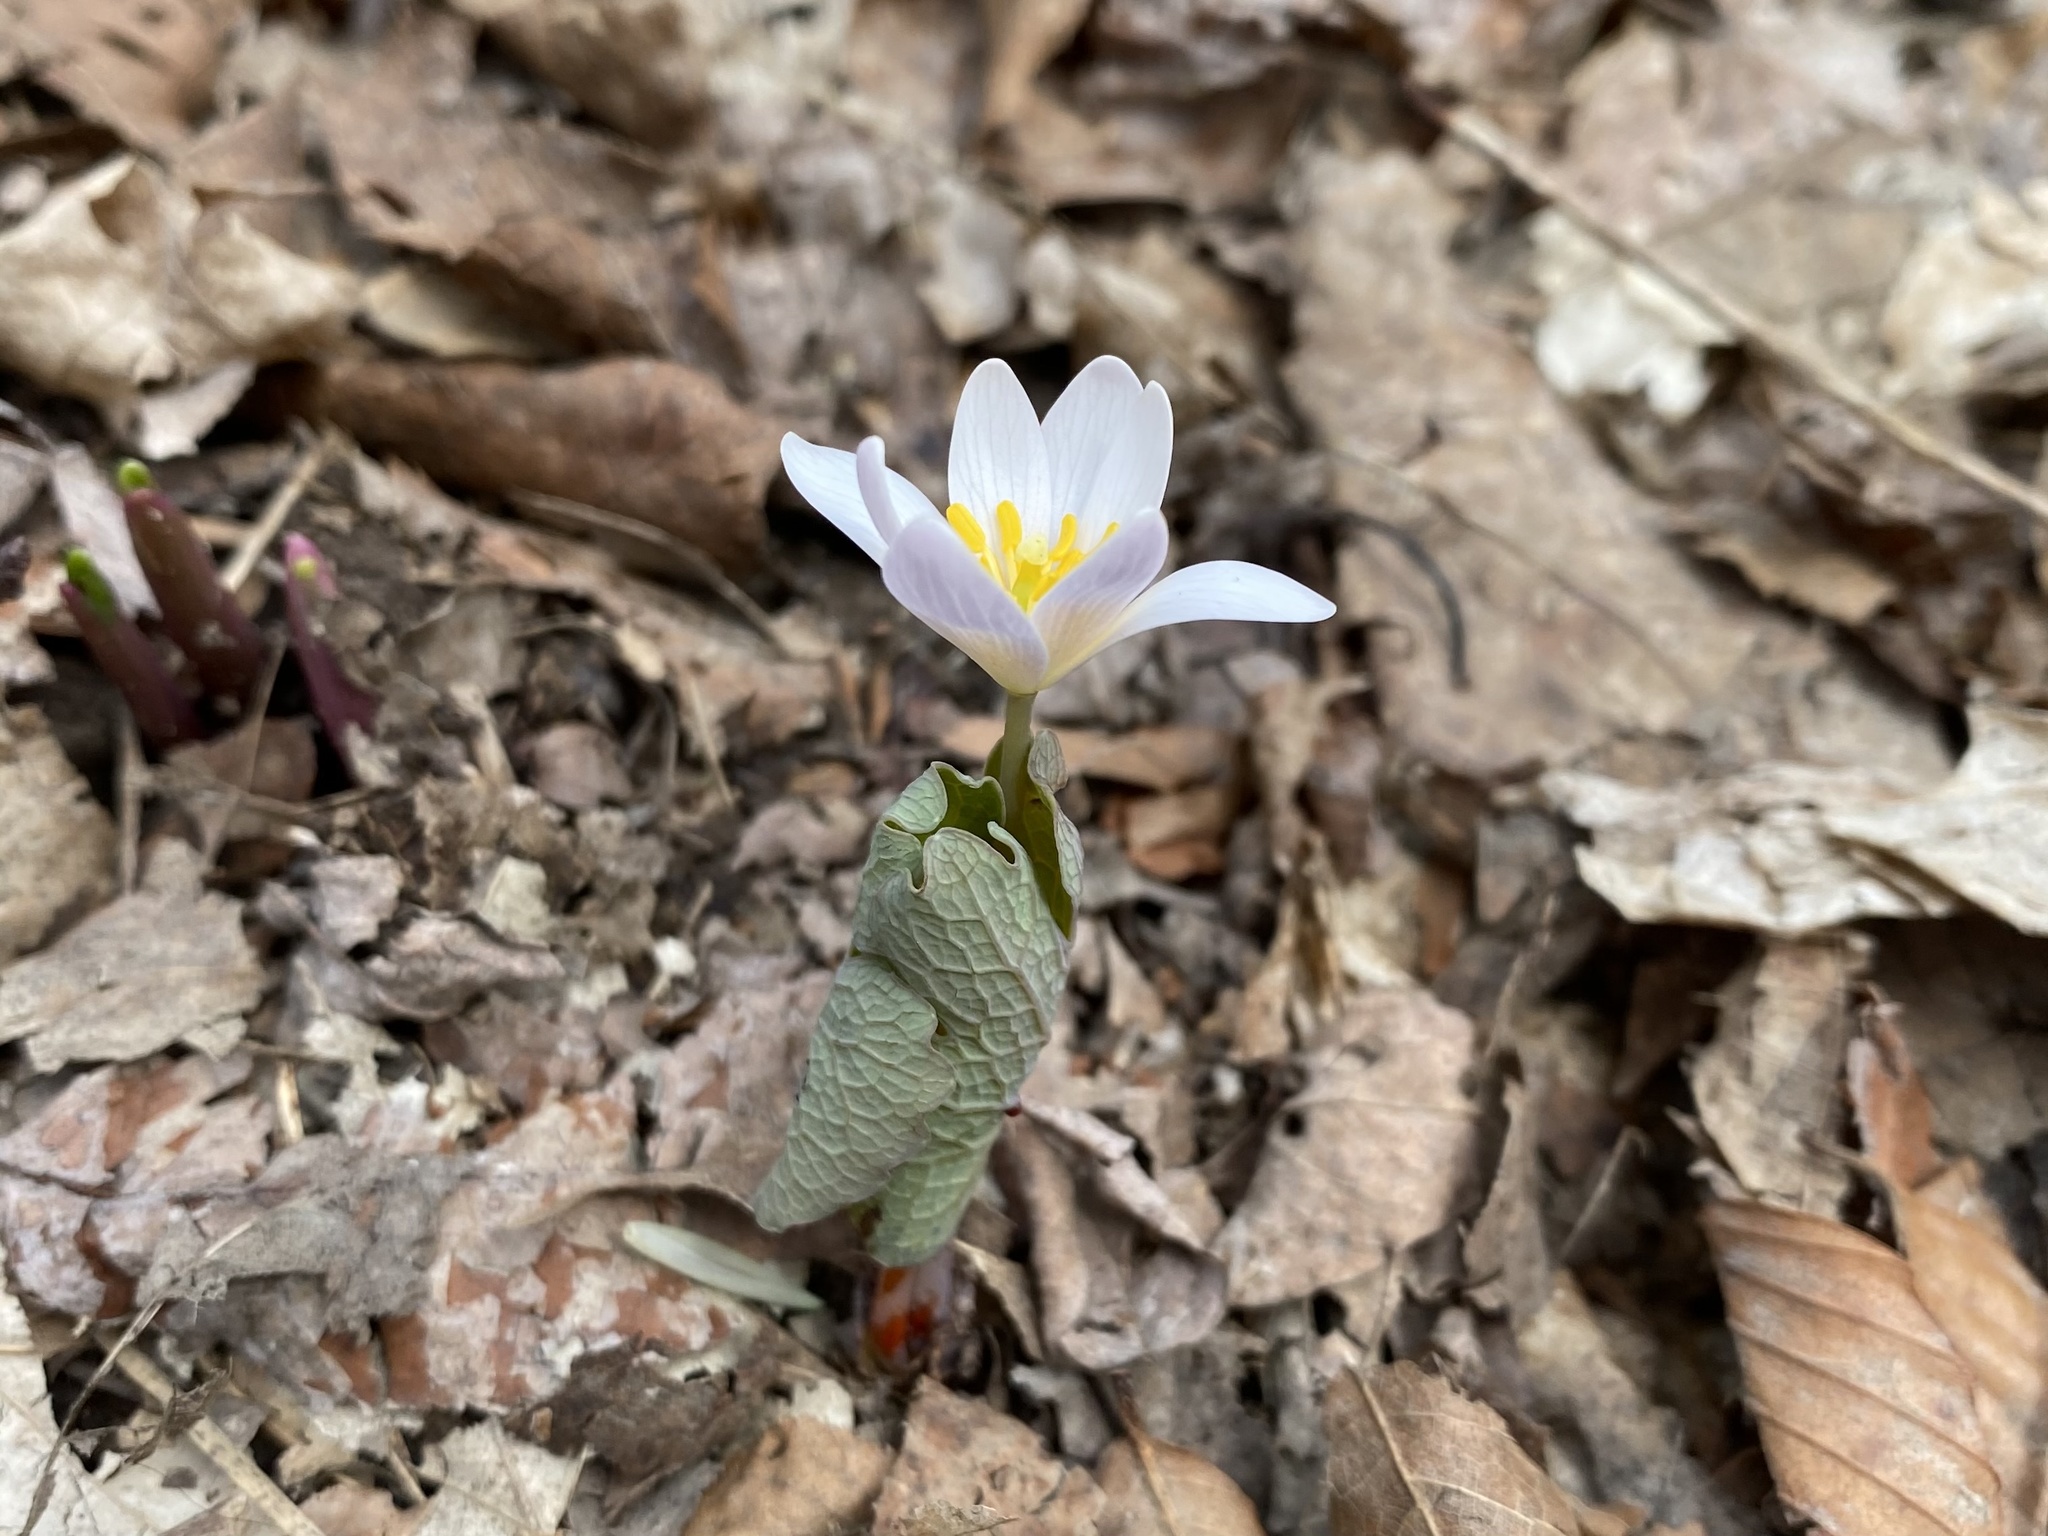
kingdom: Plantae
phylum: Tracheophyta
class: Magnoliopsida
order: Ranunculales
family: Papaveraceae
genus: Sanguinaria
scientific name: Sanguinaria canadensis
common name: Bloodroot
